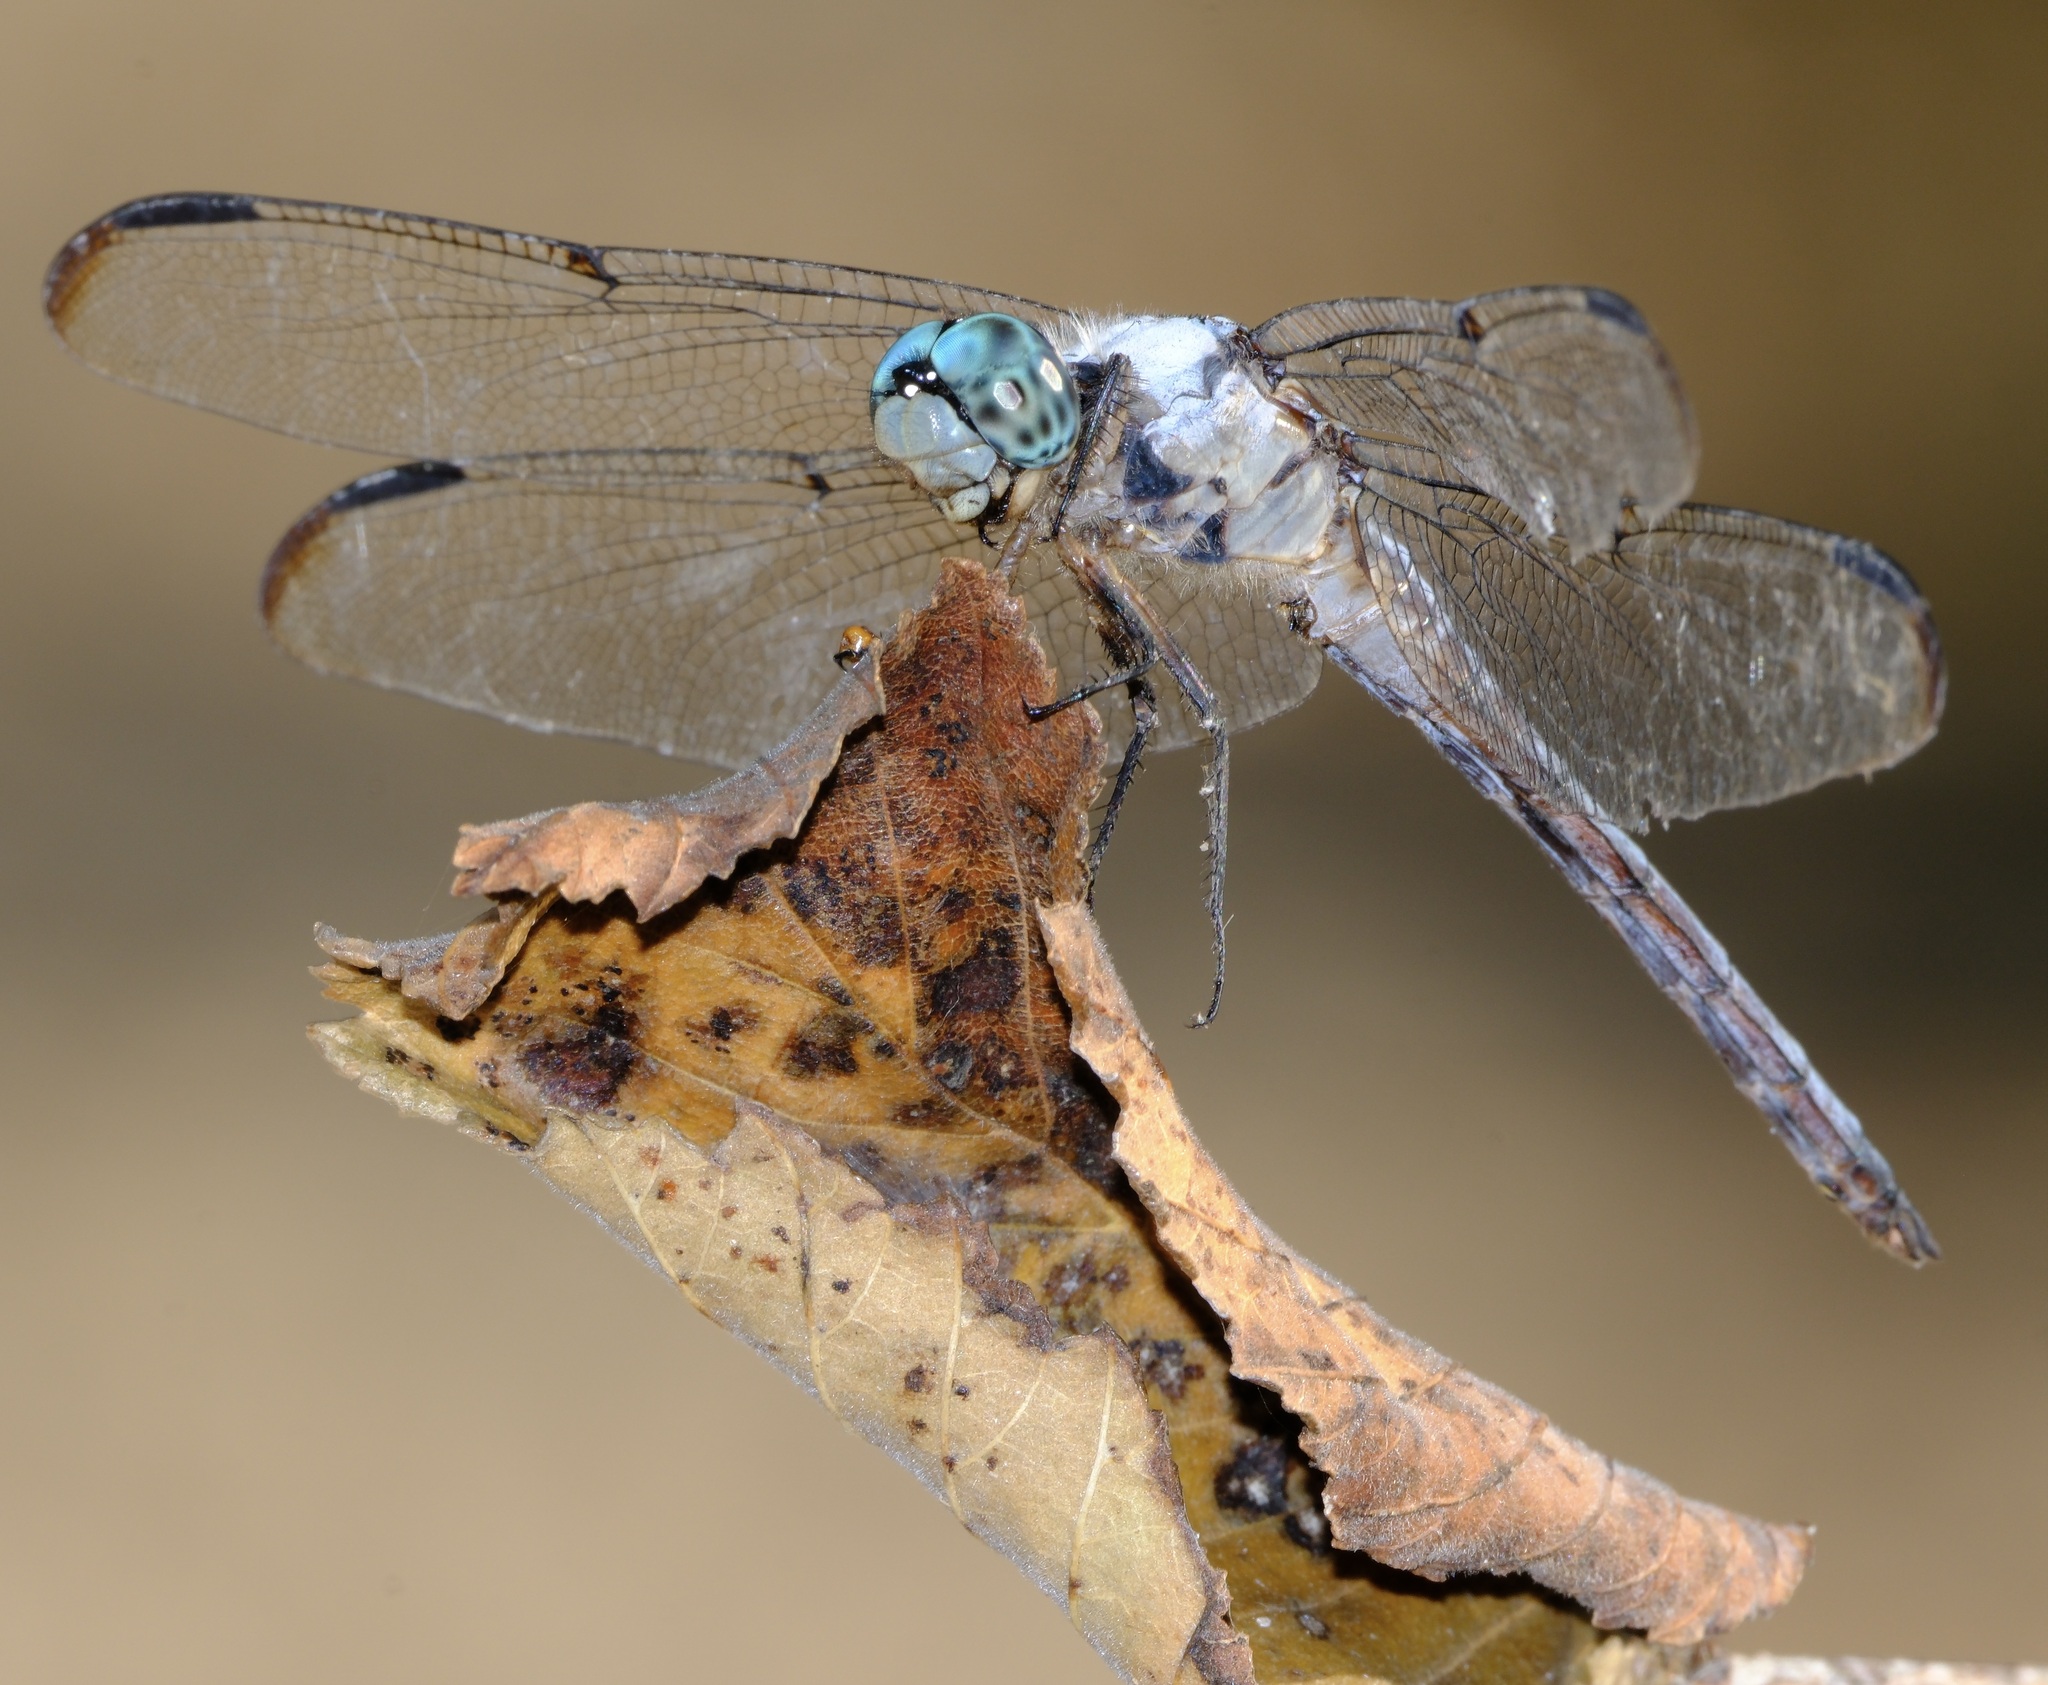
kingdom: Animalia
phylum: Arthropoda
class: Insecta
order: Odonata
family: Libellulidae
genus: Libellula
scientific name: Libellula vibrans
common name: Great blue skimmer
